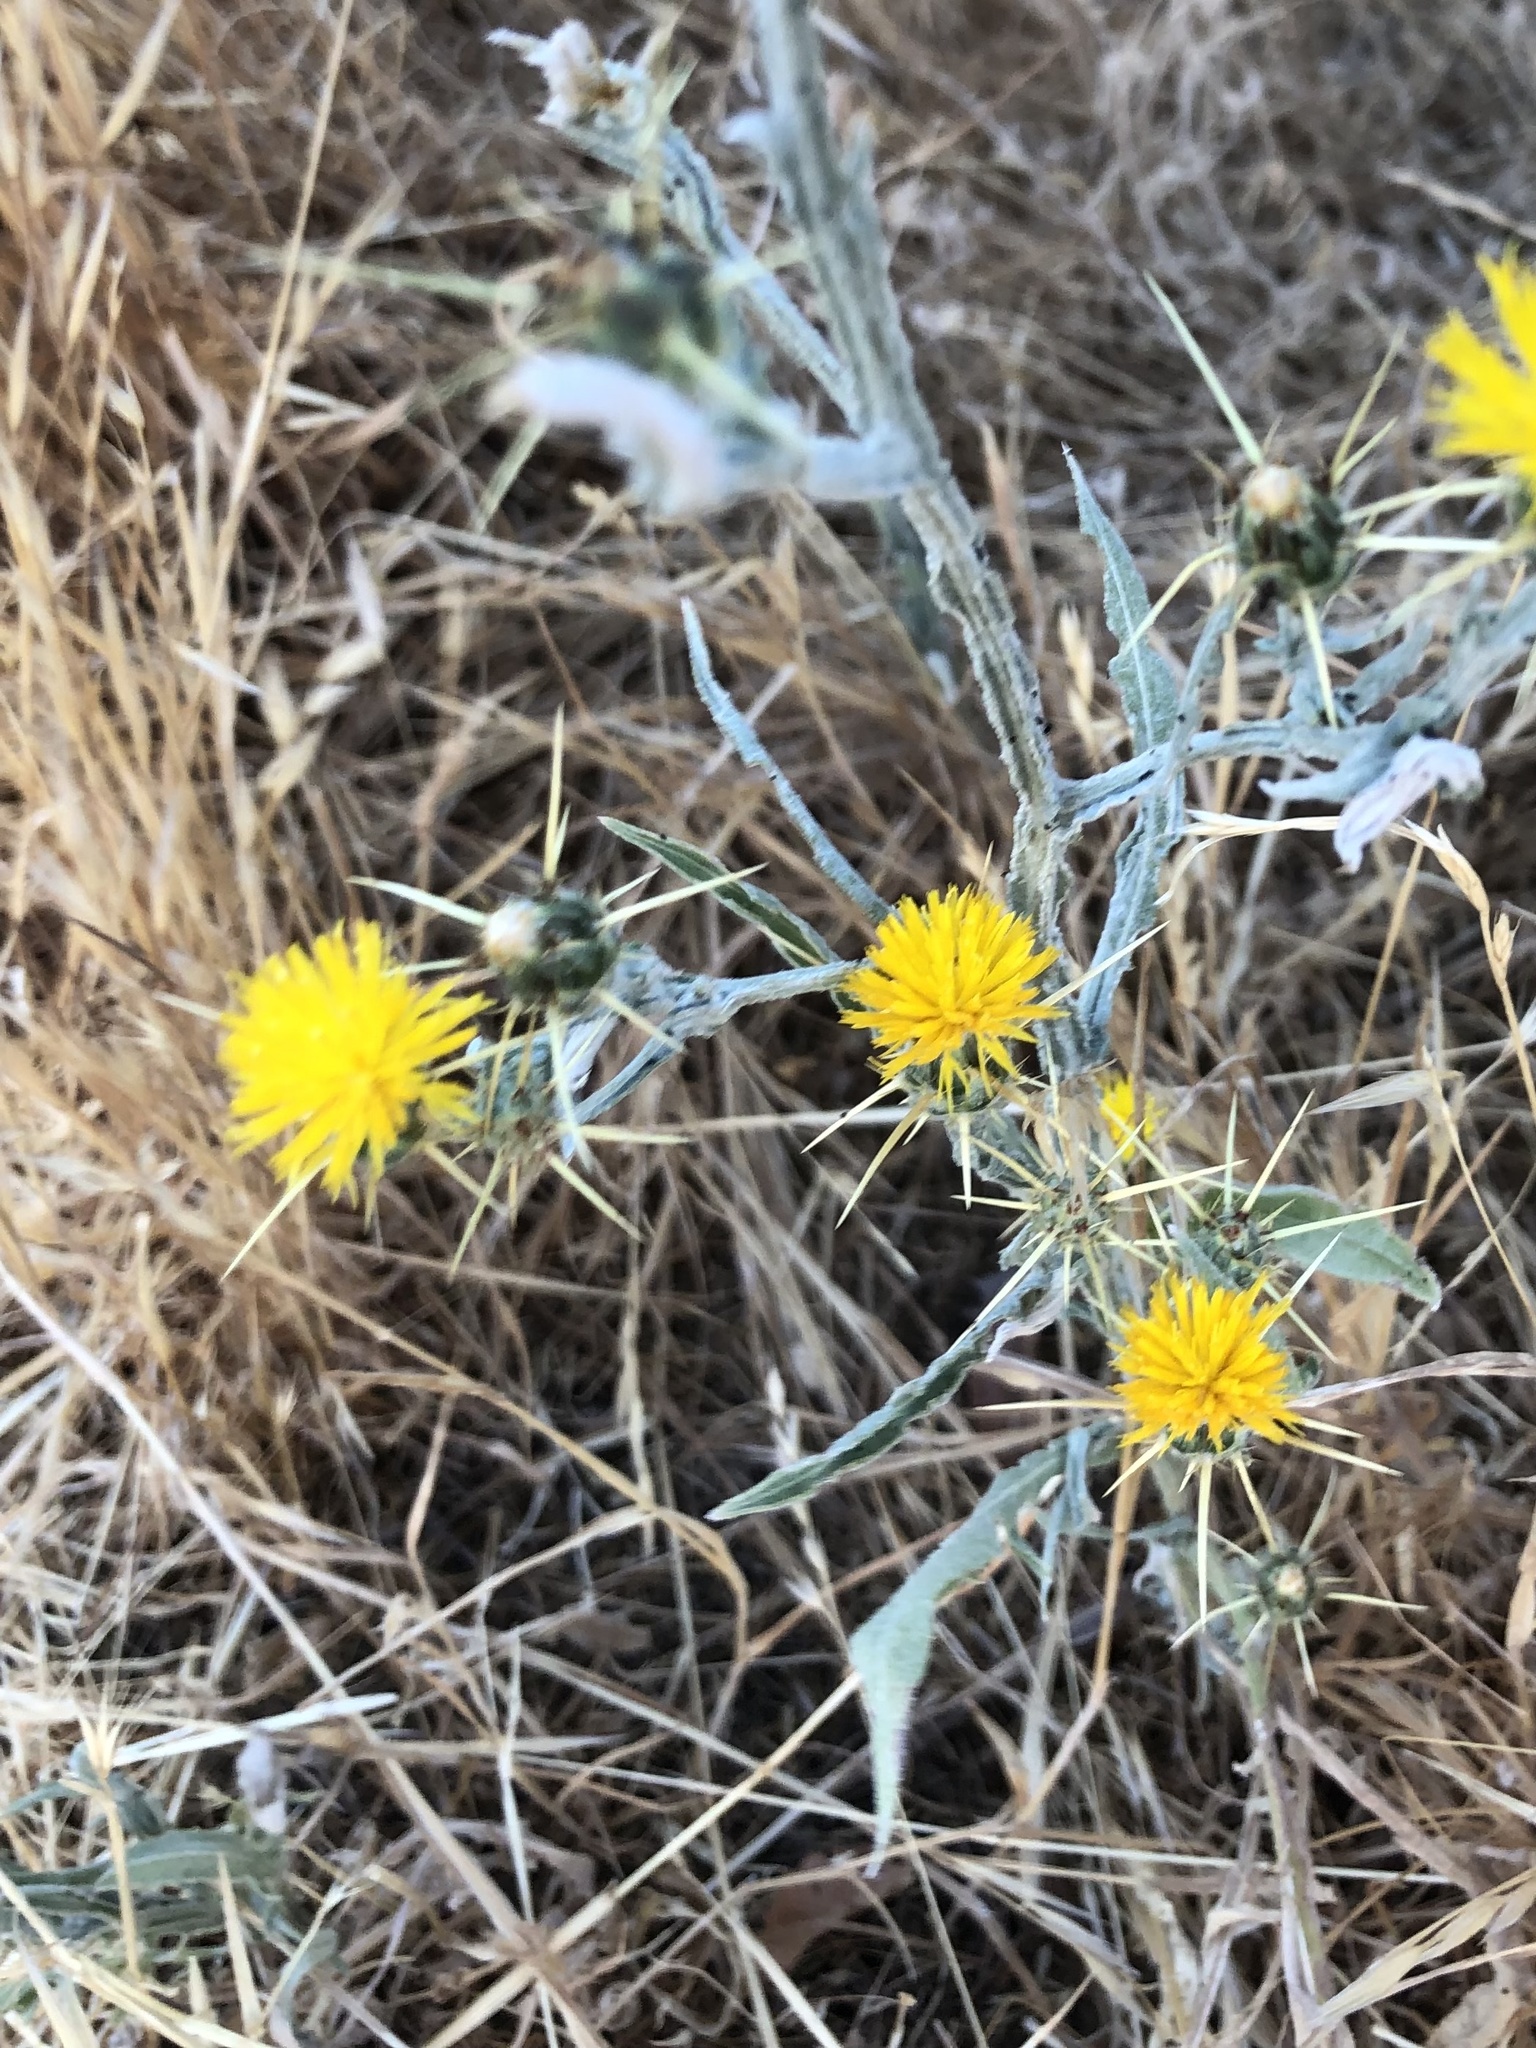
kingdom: Plantae
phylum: Tracheophyta
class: Magnoliopsida
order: Asterales
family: Asteraceae
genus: Centaurea
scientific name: Centaurea solstitialis
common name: Yellow star-thistle
